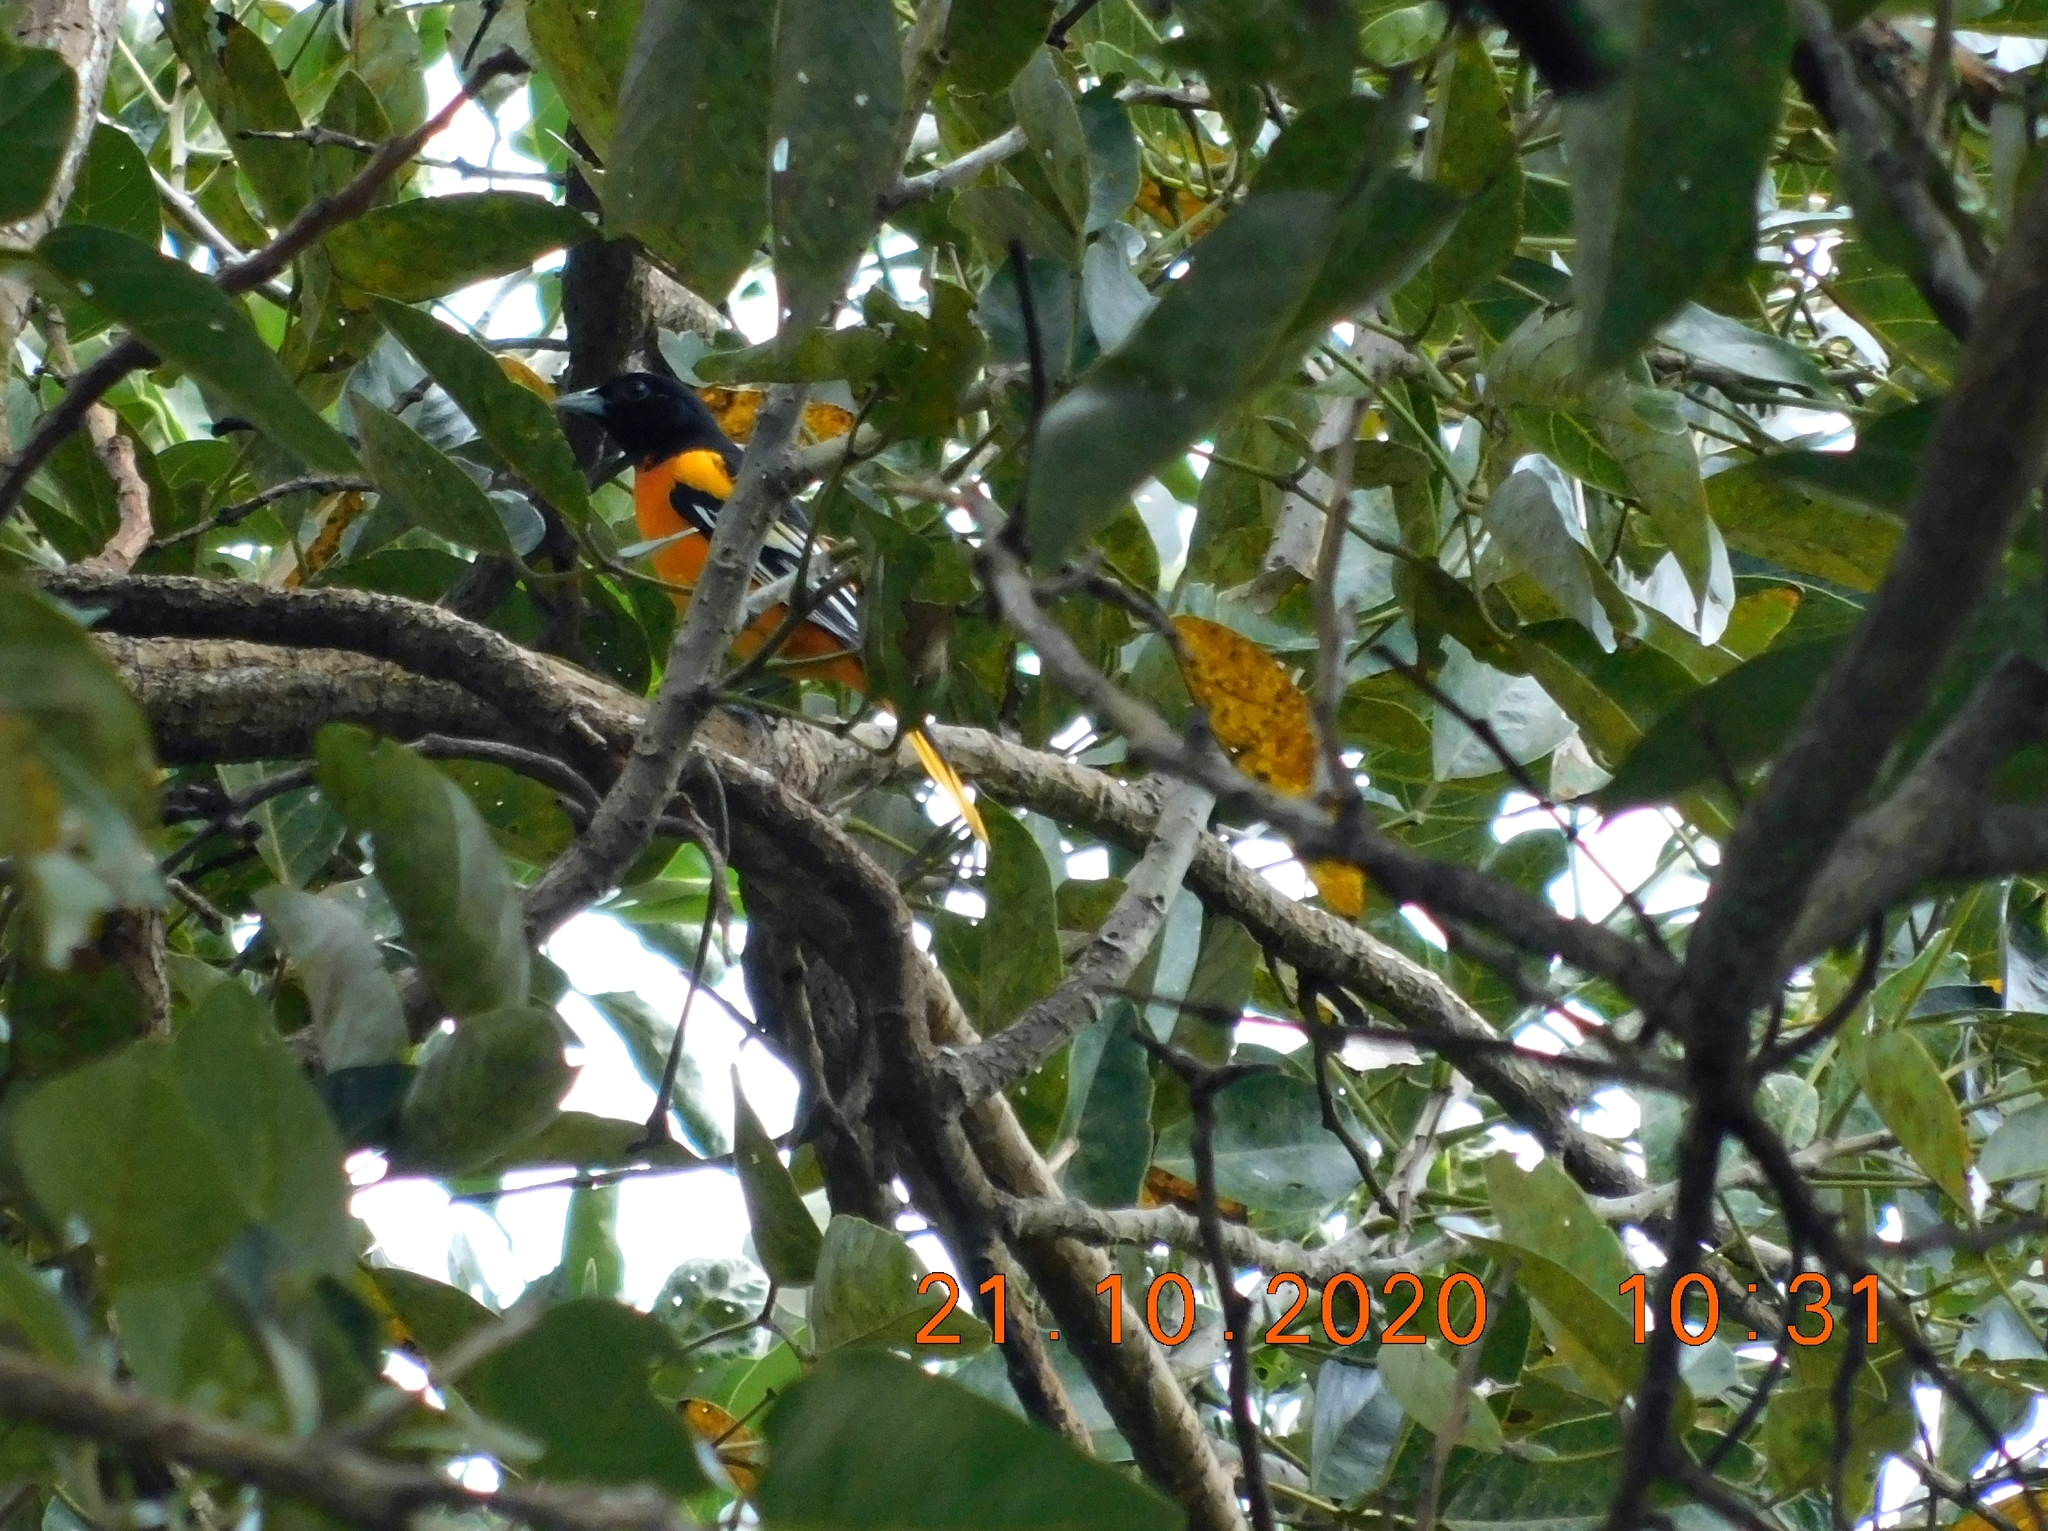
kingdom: Animalia
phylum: Chordata
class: Aves
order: Passeriformes
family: Icteridae
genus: Icterus
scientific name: Icterus galbula
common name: Baltimore oriole
